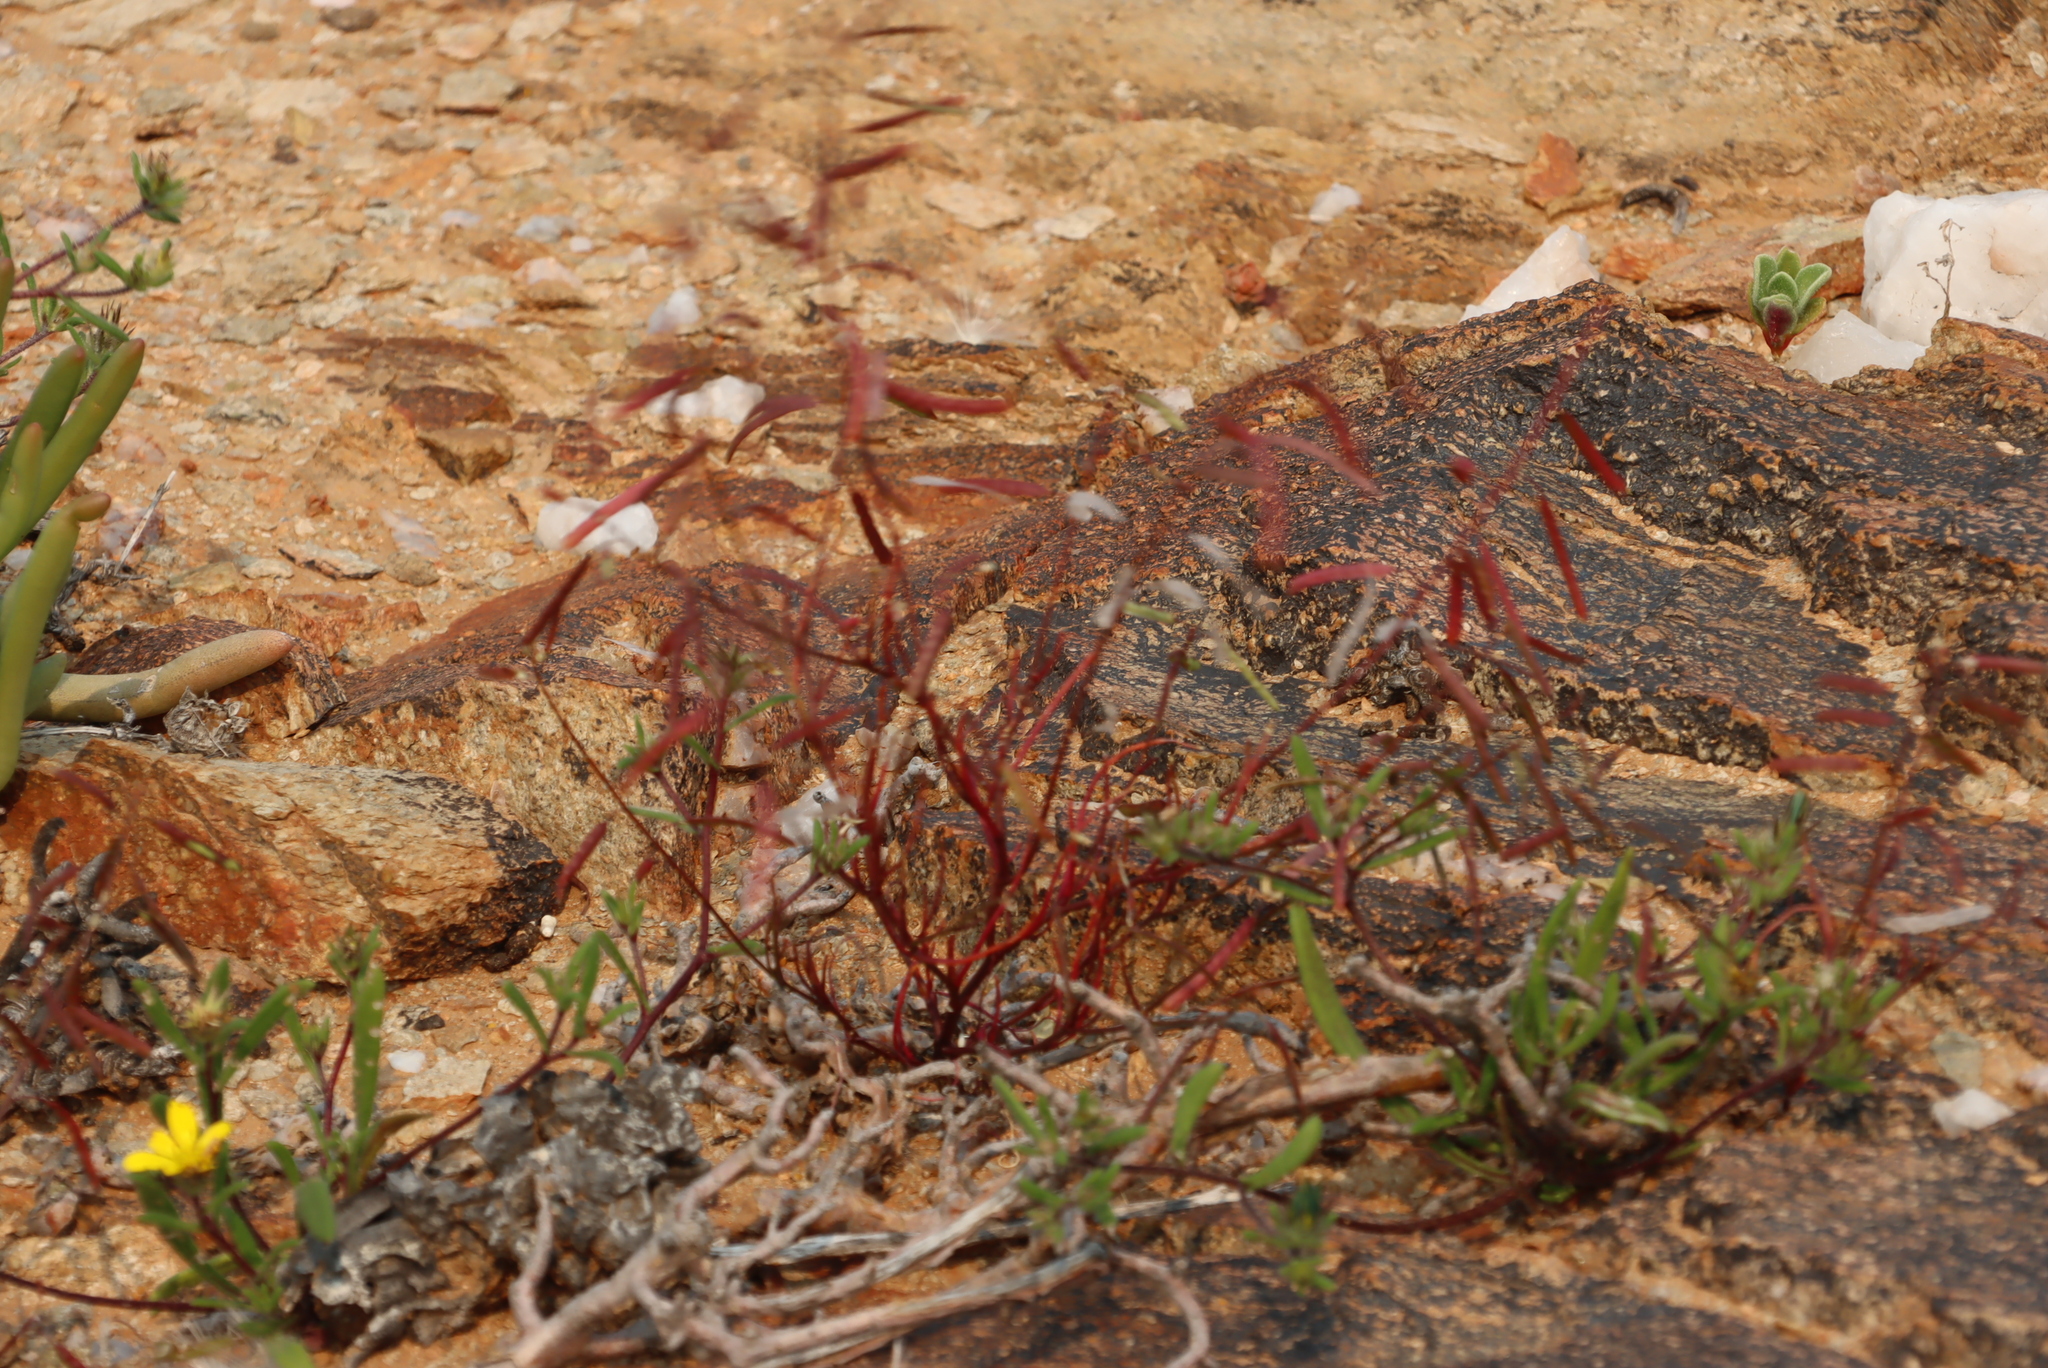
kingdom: Plantae
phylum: Tracheophyta
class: Magnoliopsida
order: Brassicales
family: Brassicaceae
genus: Heliophila
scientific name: Heliophila variabilis
